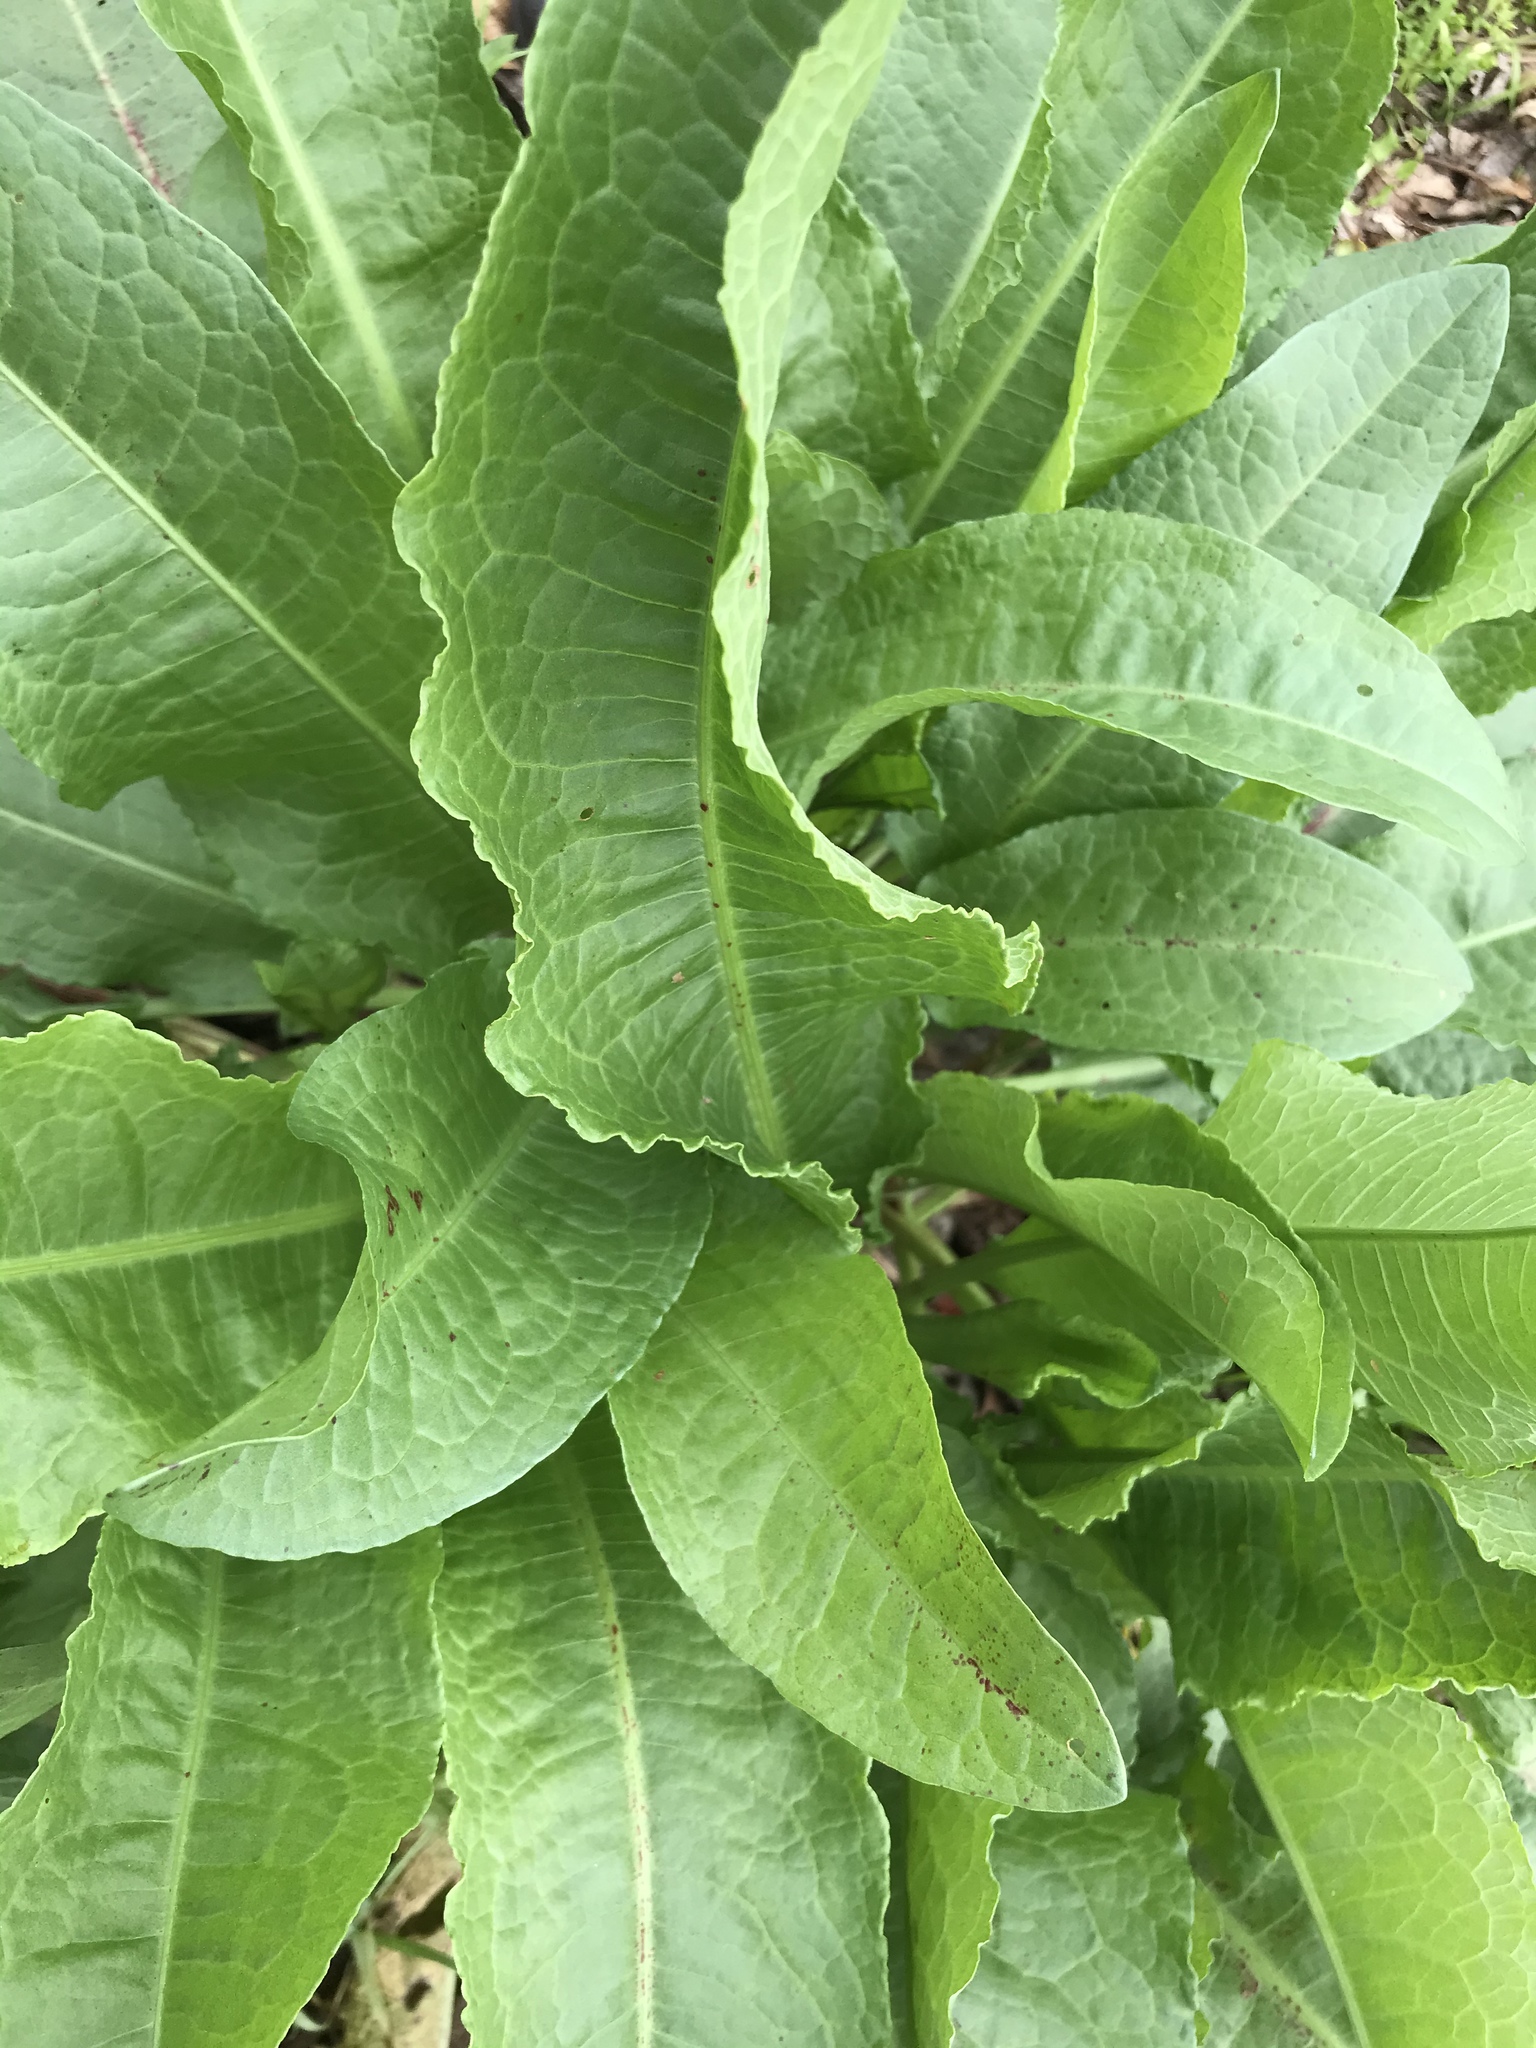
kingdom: Plantae
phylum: Tracheophyta
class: Magnoliopsida
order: Caryophyllales
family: Polygonaceae
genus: Rumex
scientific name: Rumex crispus
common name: Curled dock
